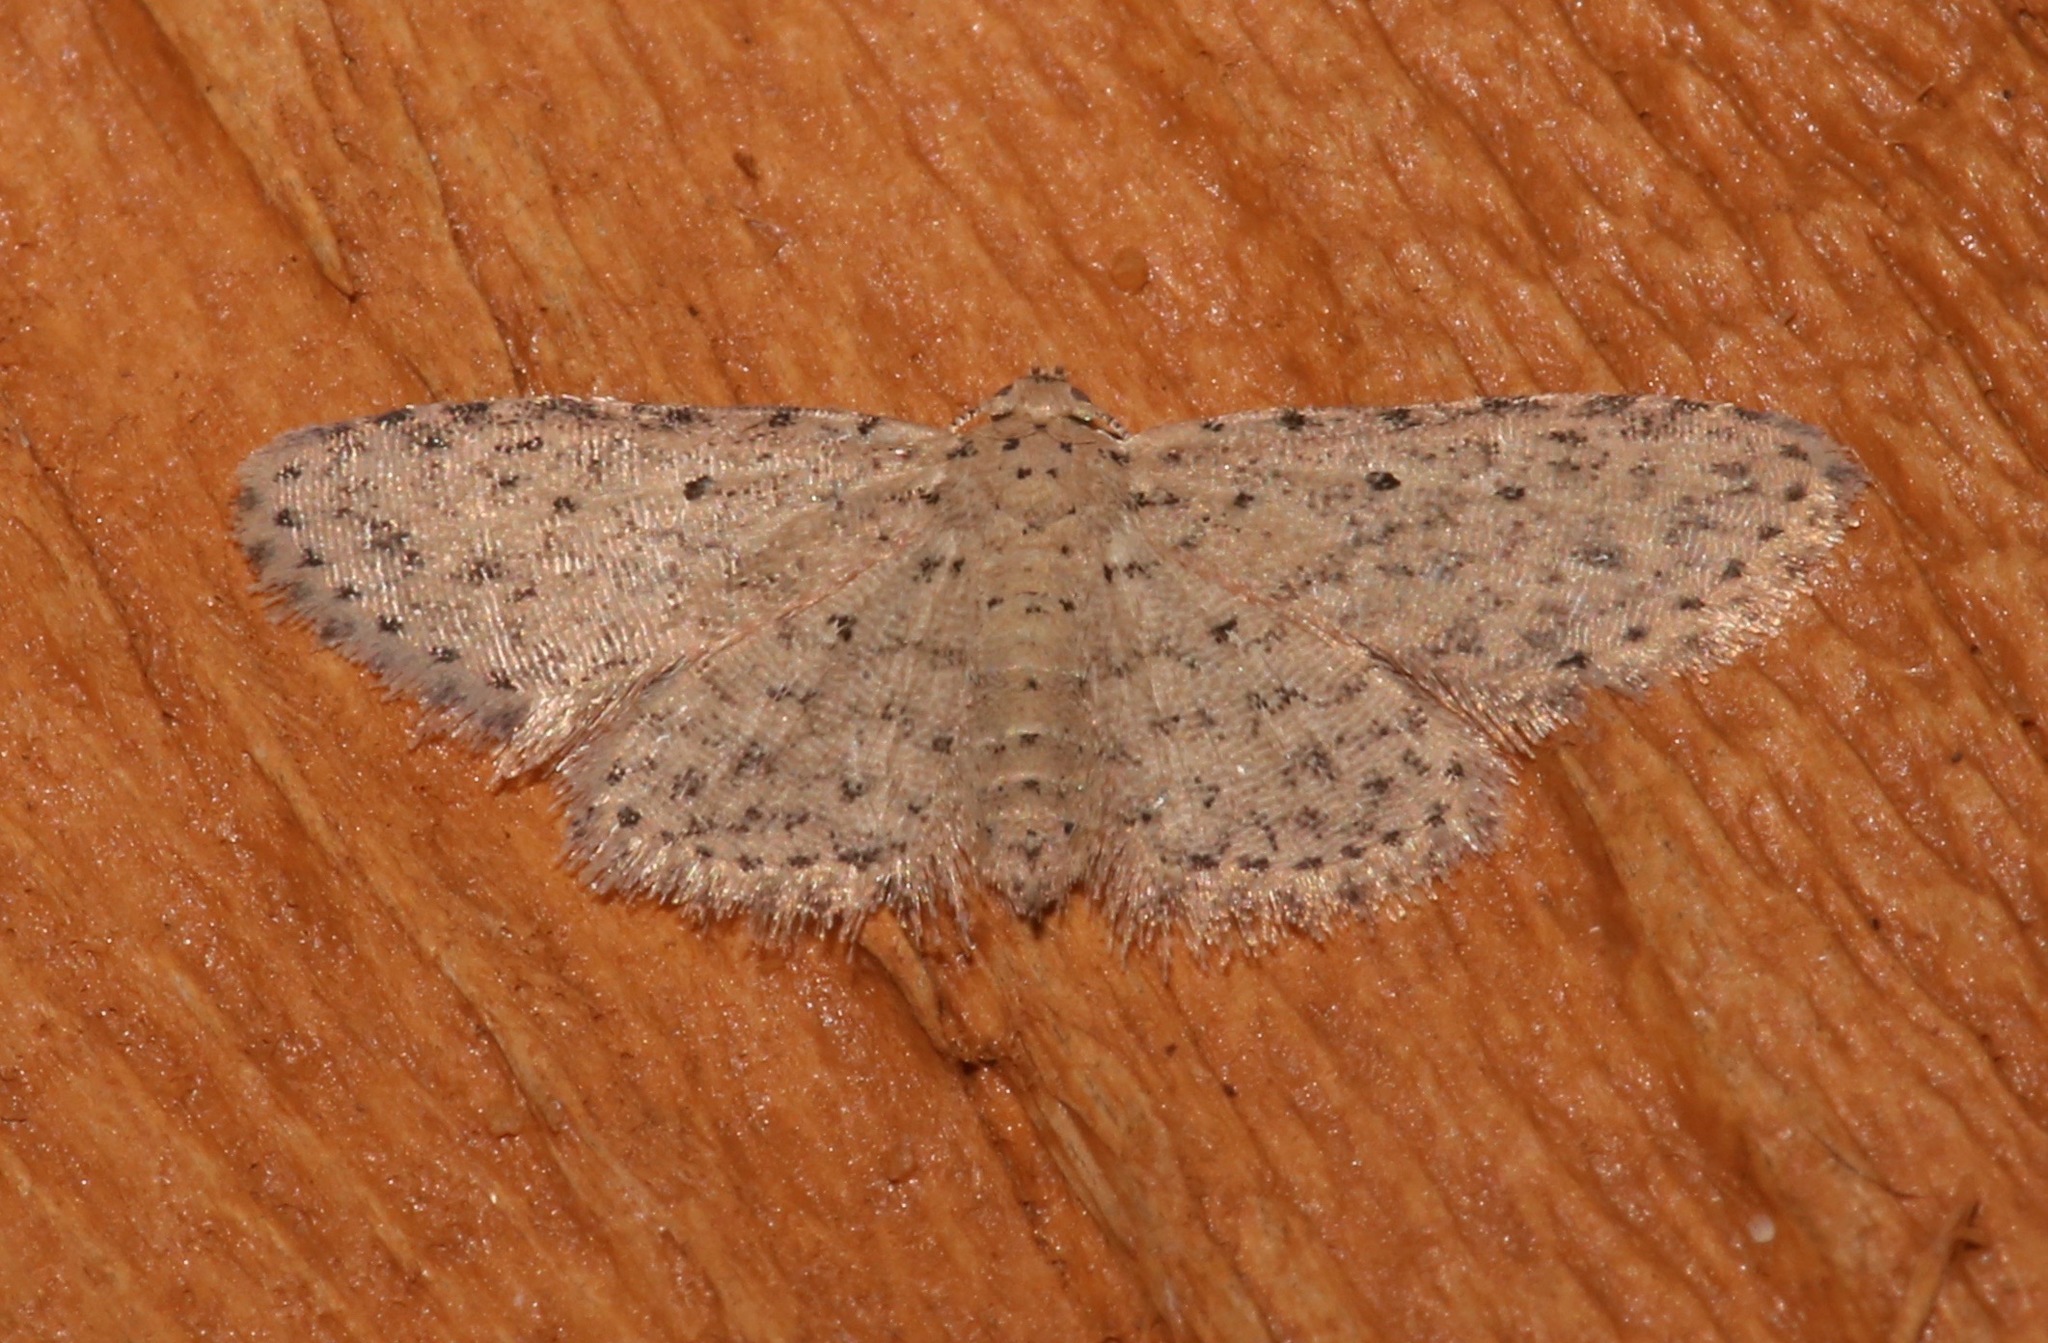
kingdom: Animalia
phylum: Arthropoda
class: Insecta
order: Lepidoptera
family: Erebidae
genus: Sigela
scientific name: Sigela lynx
